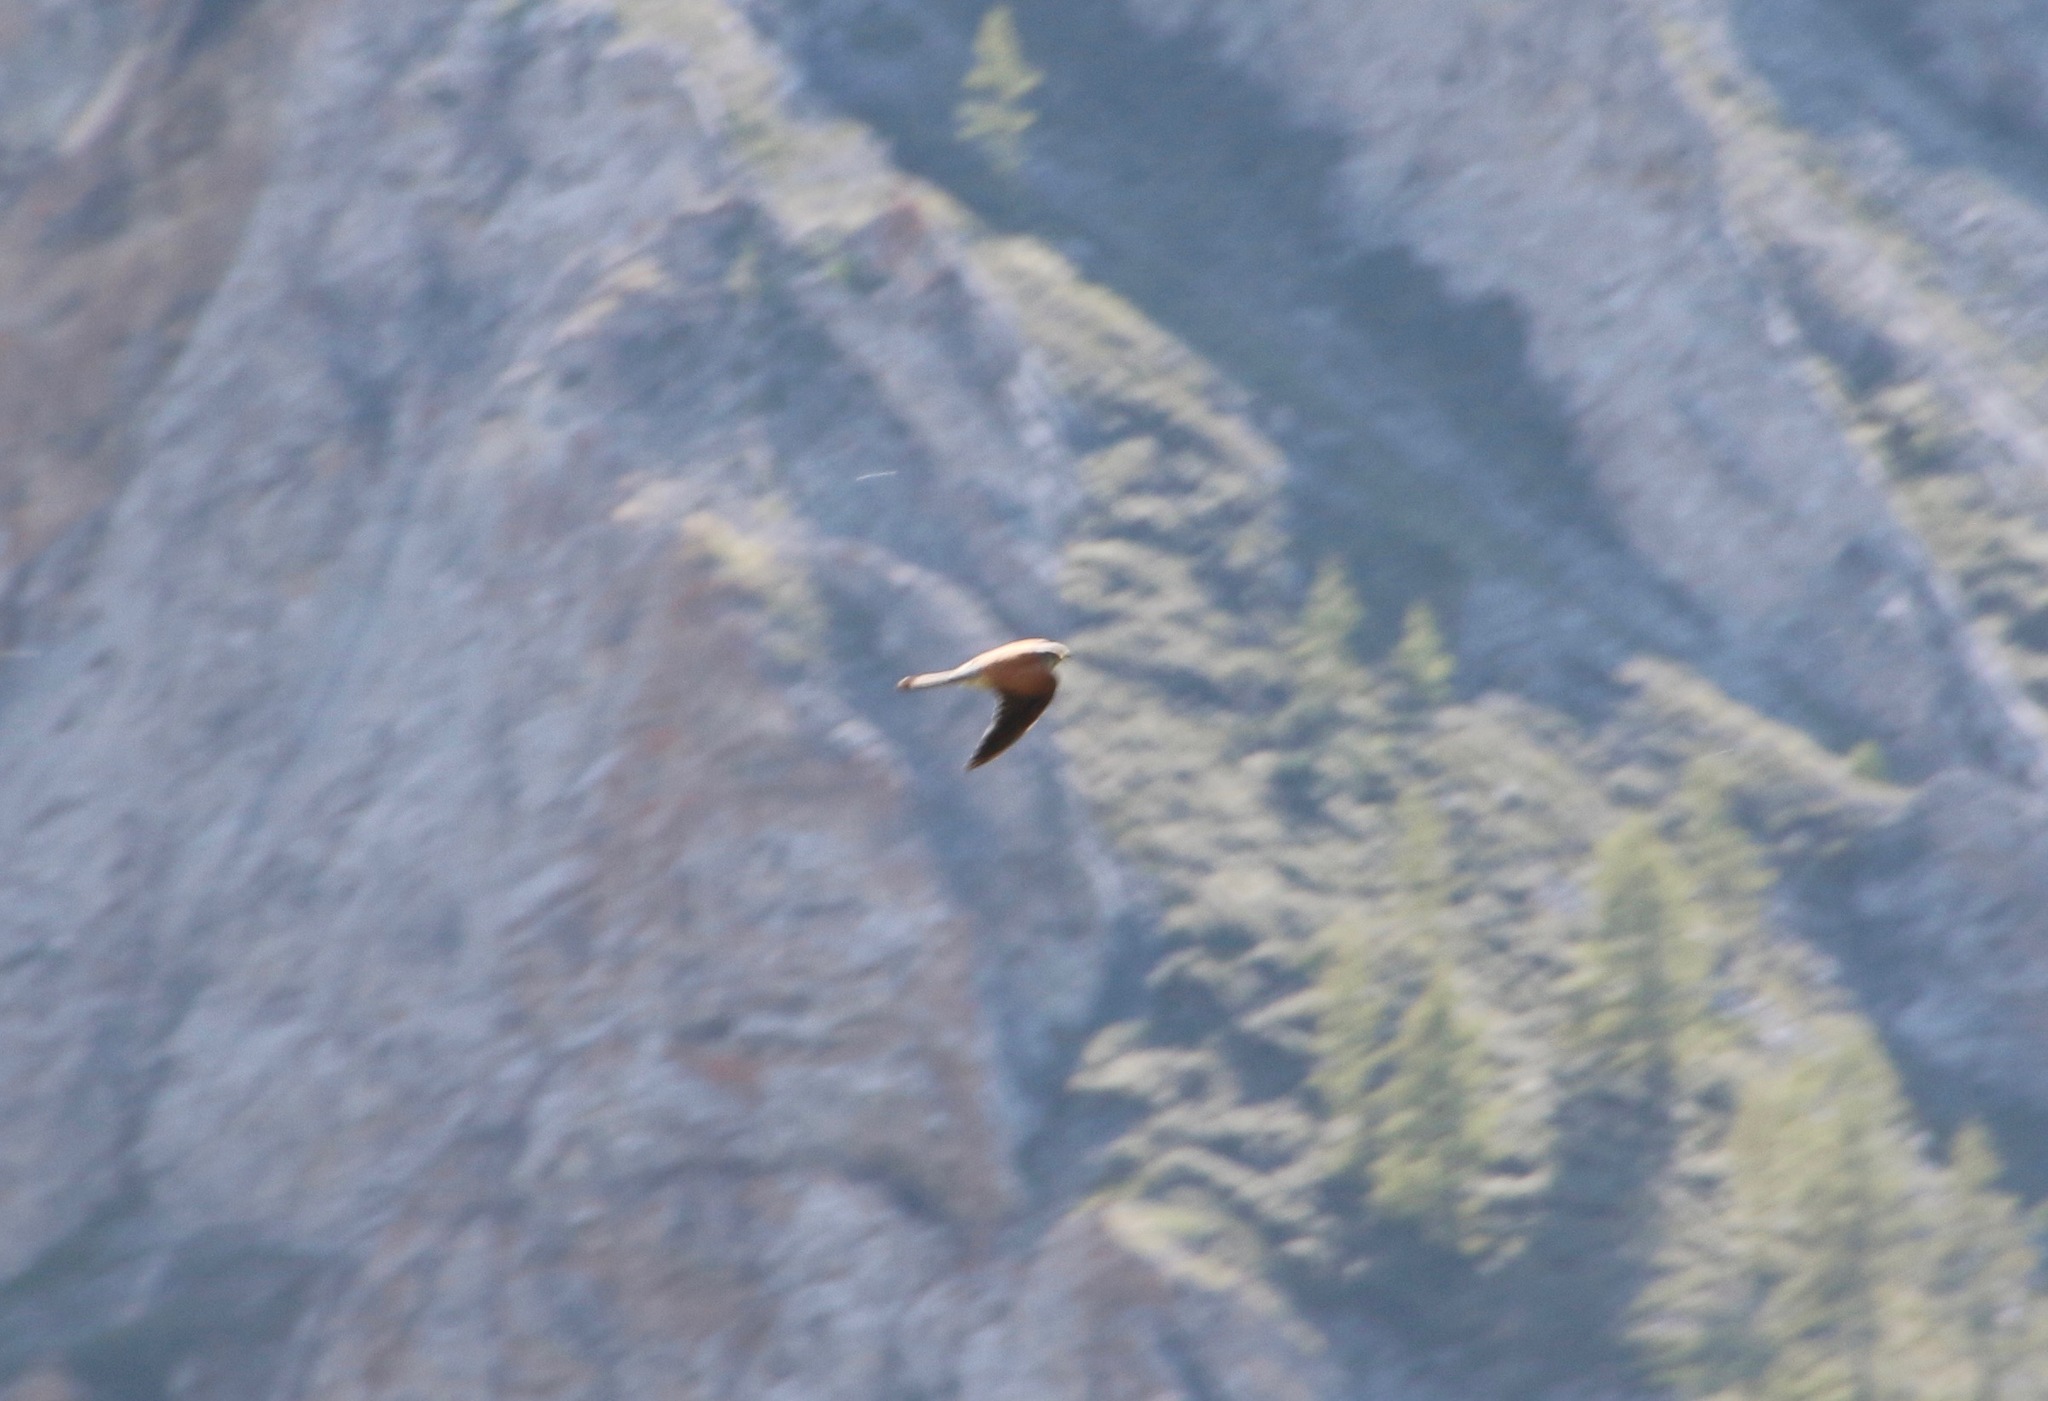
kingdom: Animalia
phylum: Chordata
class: Aves
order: Falconiformes
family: Falconidae
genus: Falco
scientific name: Falco tinnunculus
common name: Common kestrel
